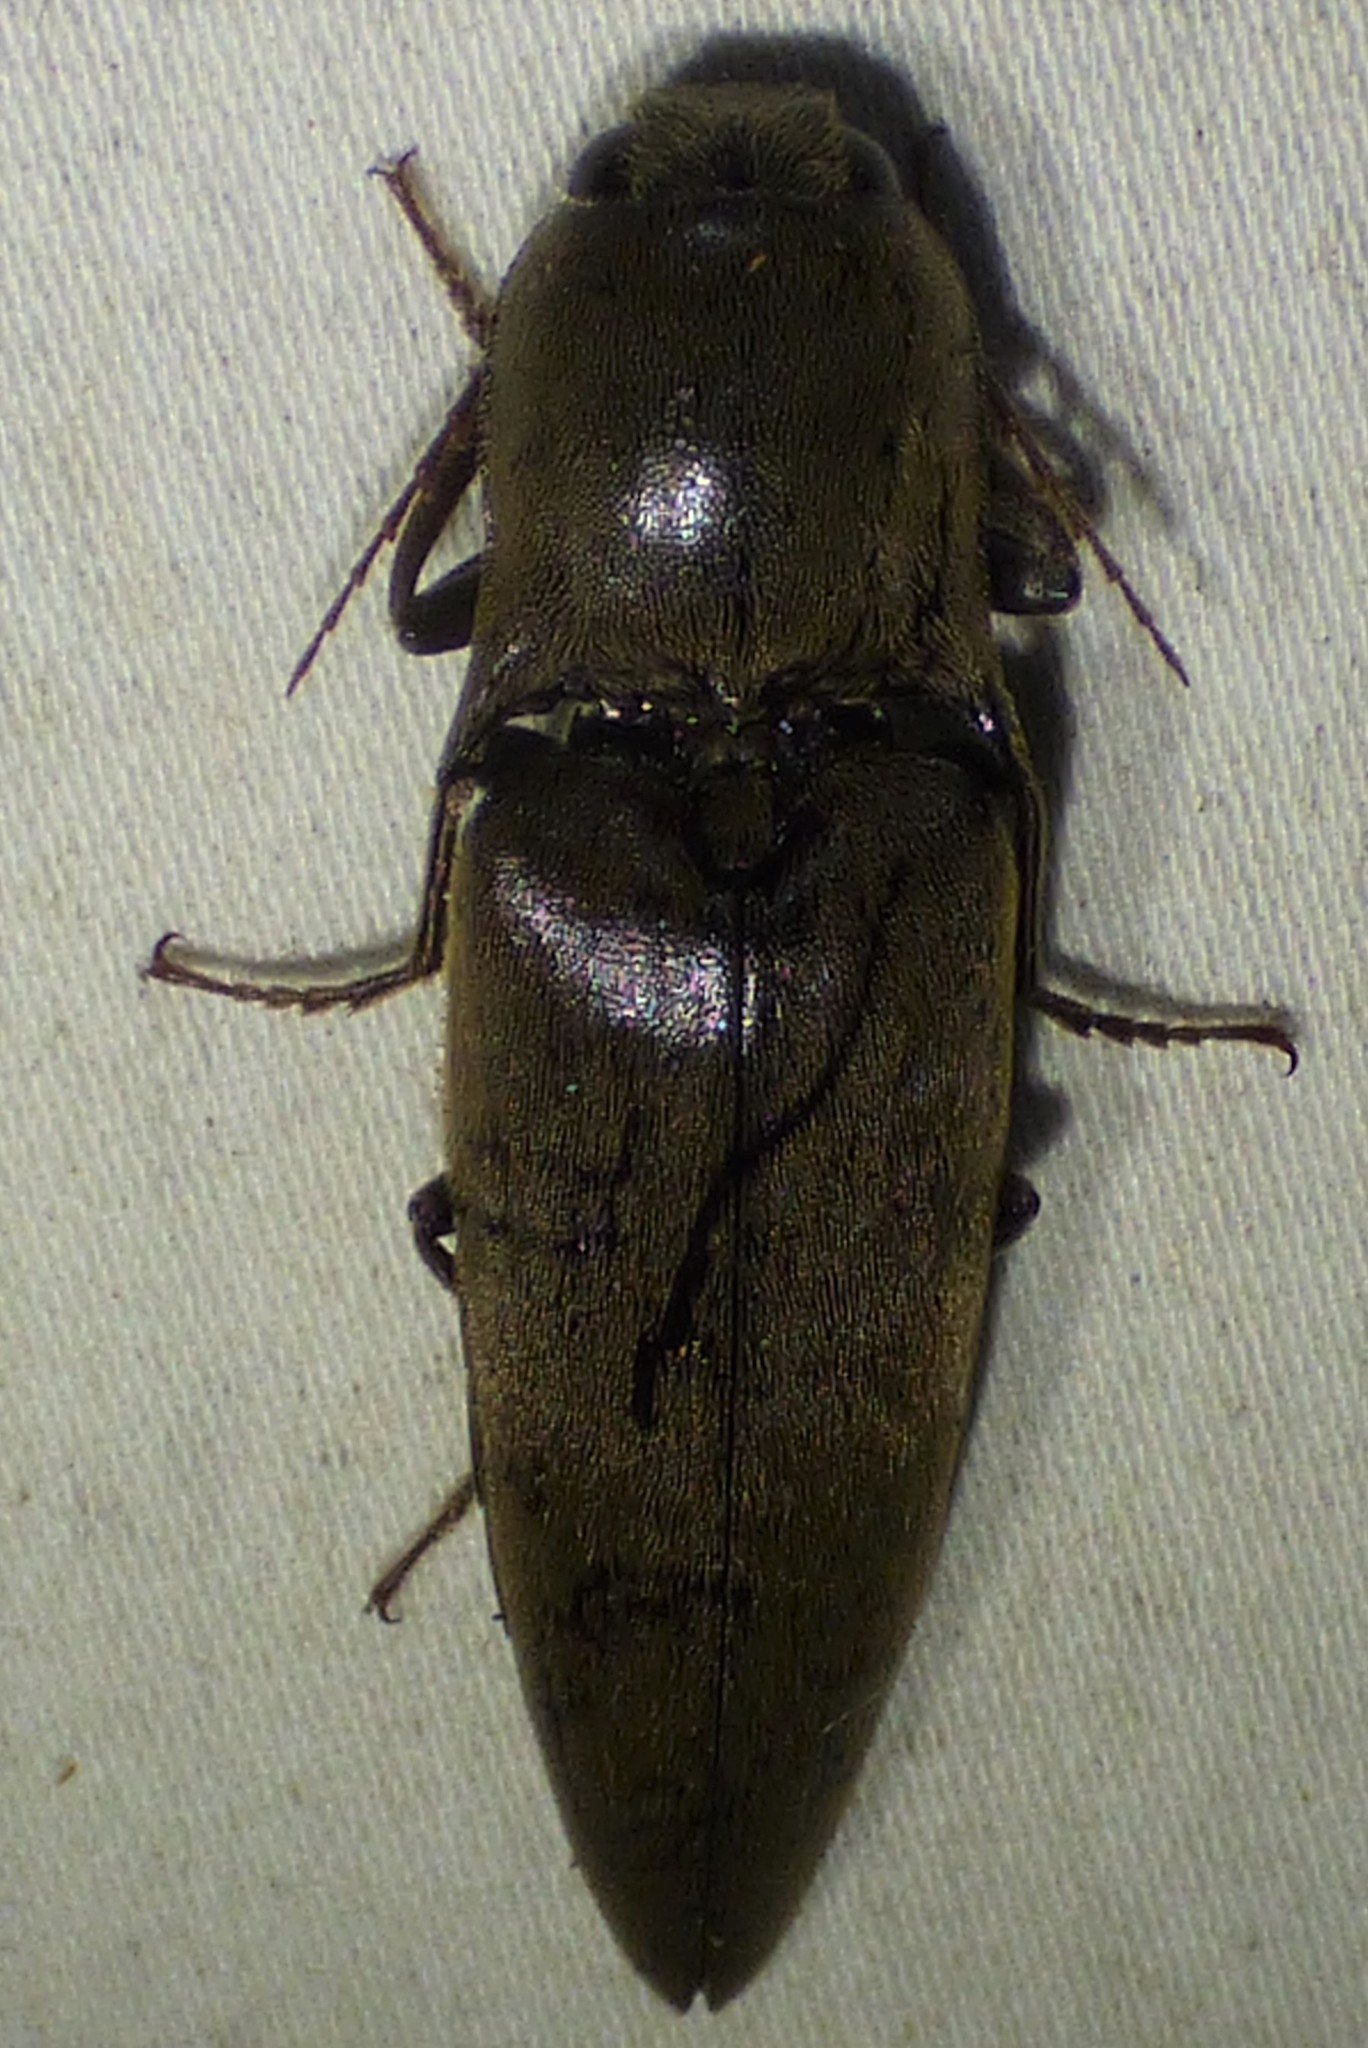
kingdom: Animalia
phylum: Arthropoda
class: Insecta
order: Coleoptera
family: Elateridae
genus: Orthostethus
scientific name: Orthostethus infuscatus
